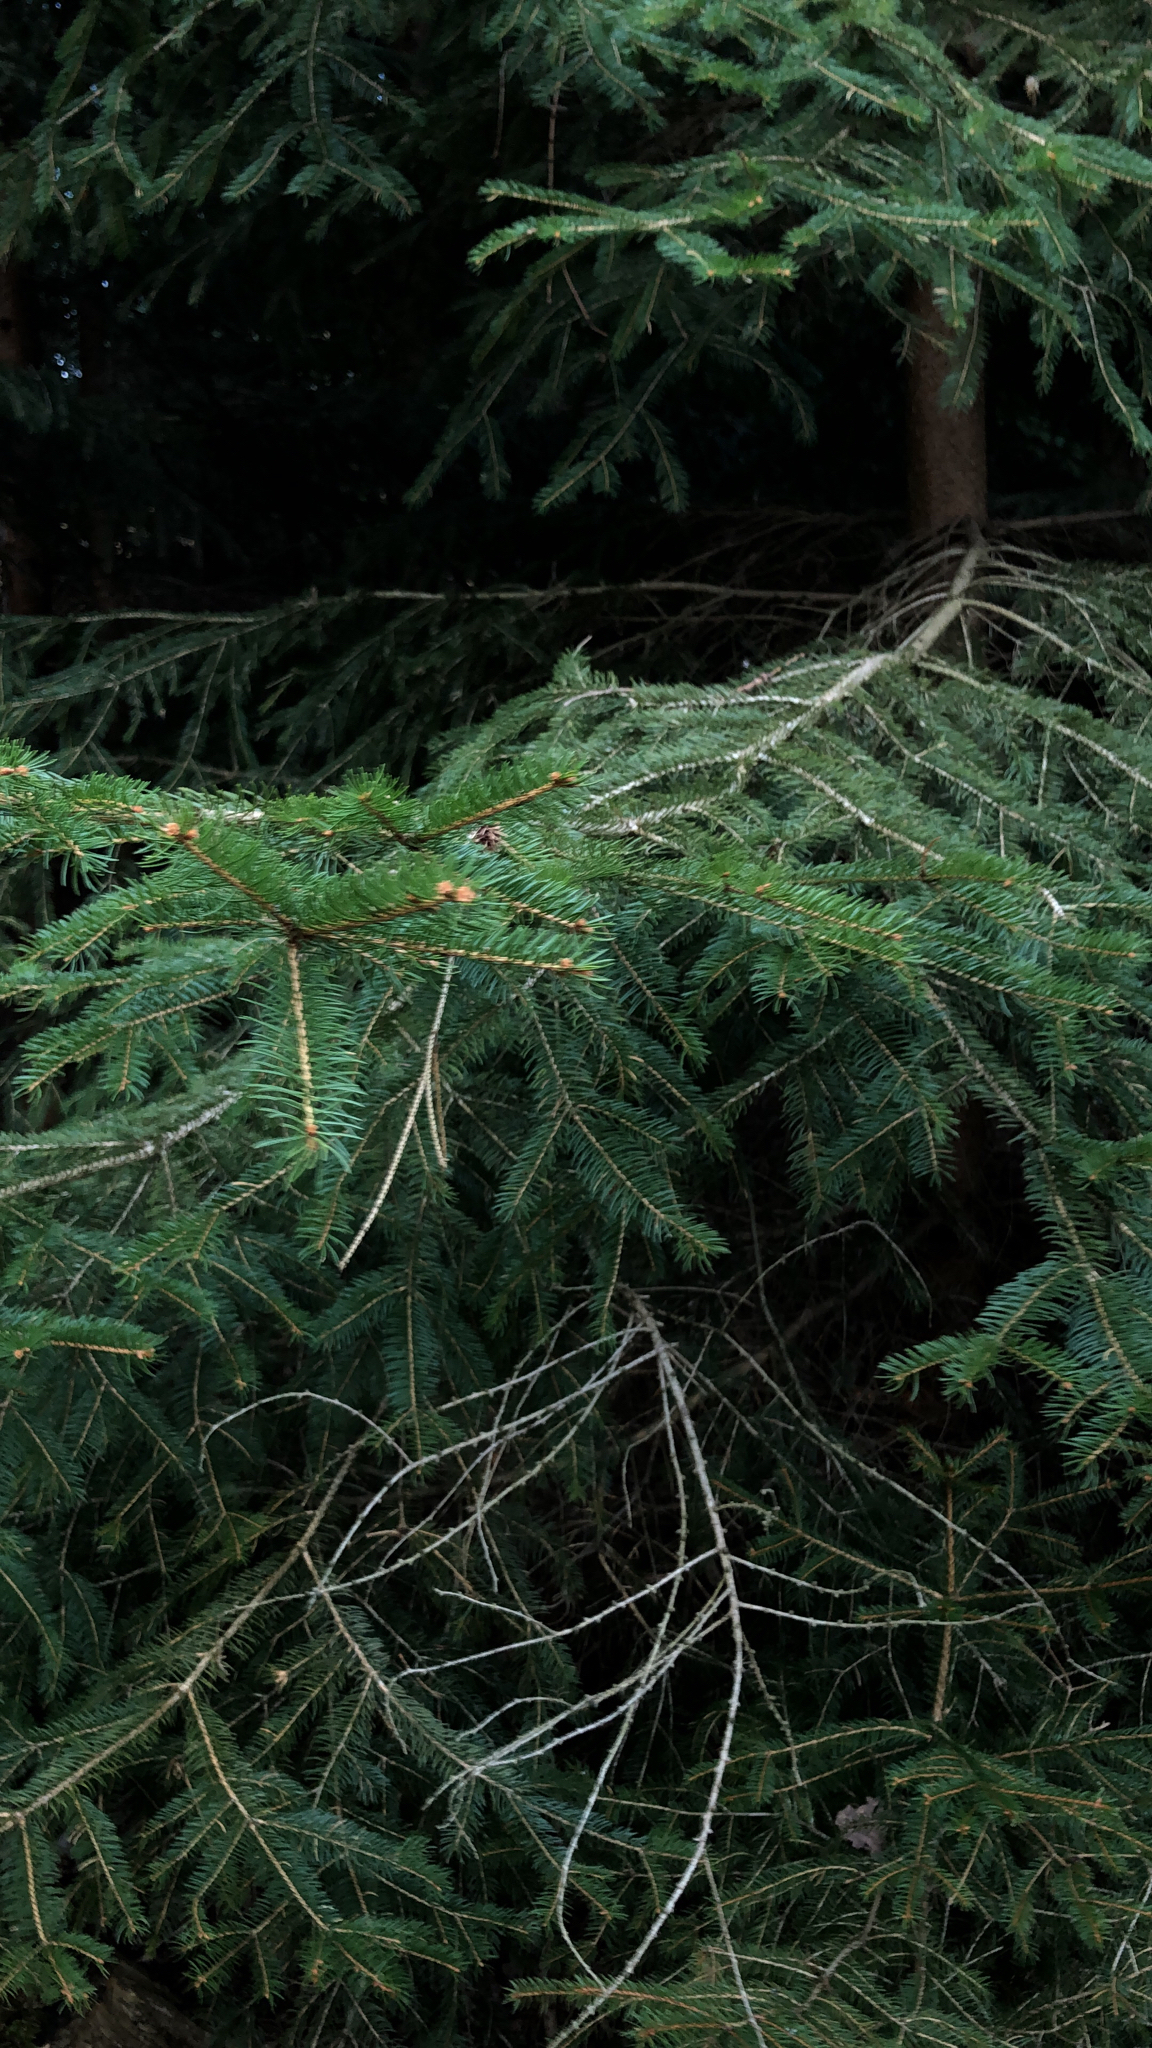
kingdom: Plantae
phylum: Tracheophyta
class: Pinopsida
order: Pinales
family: Pinaceae
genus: Picea
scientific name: Picea abies
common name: Norway spruce
